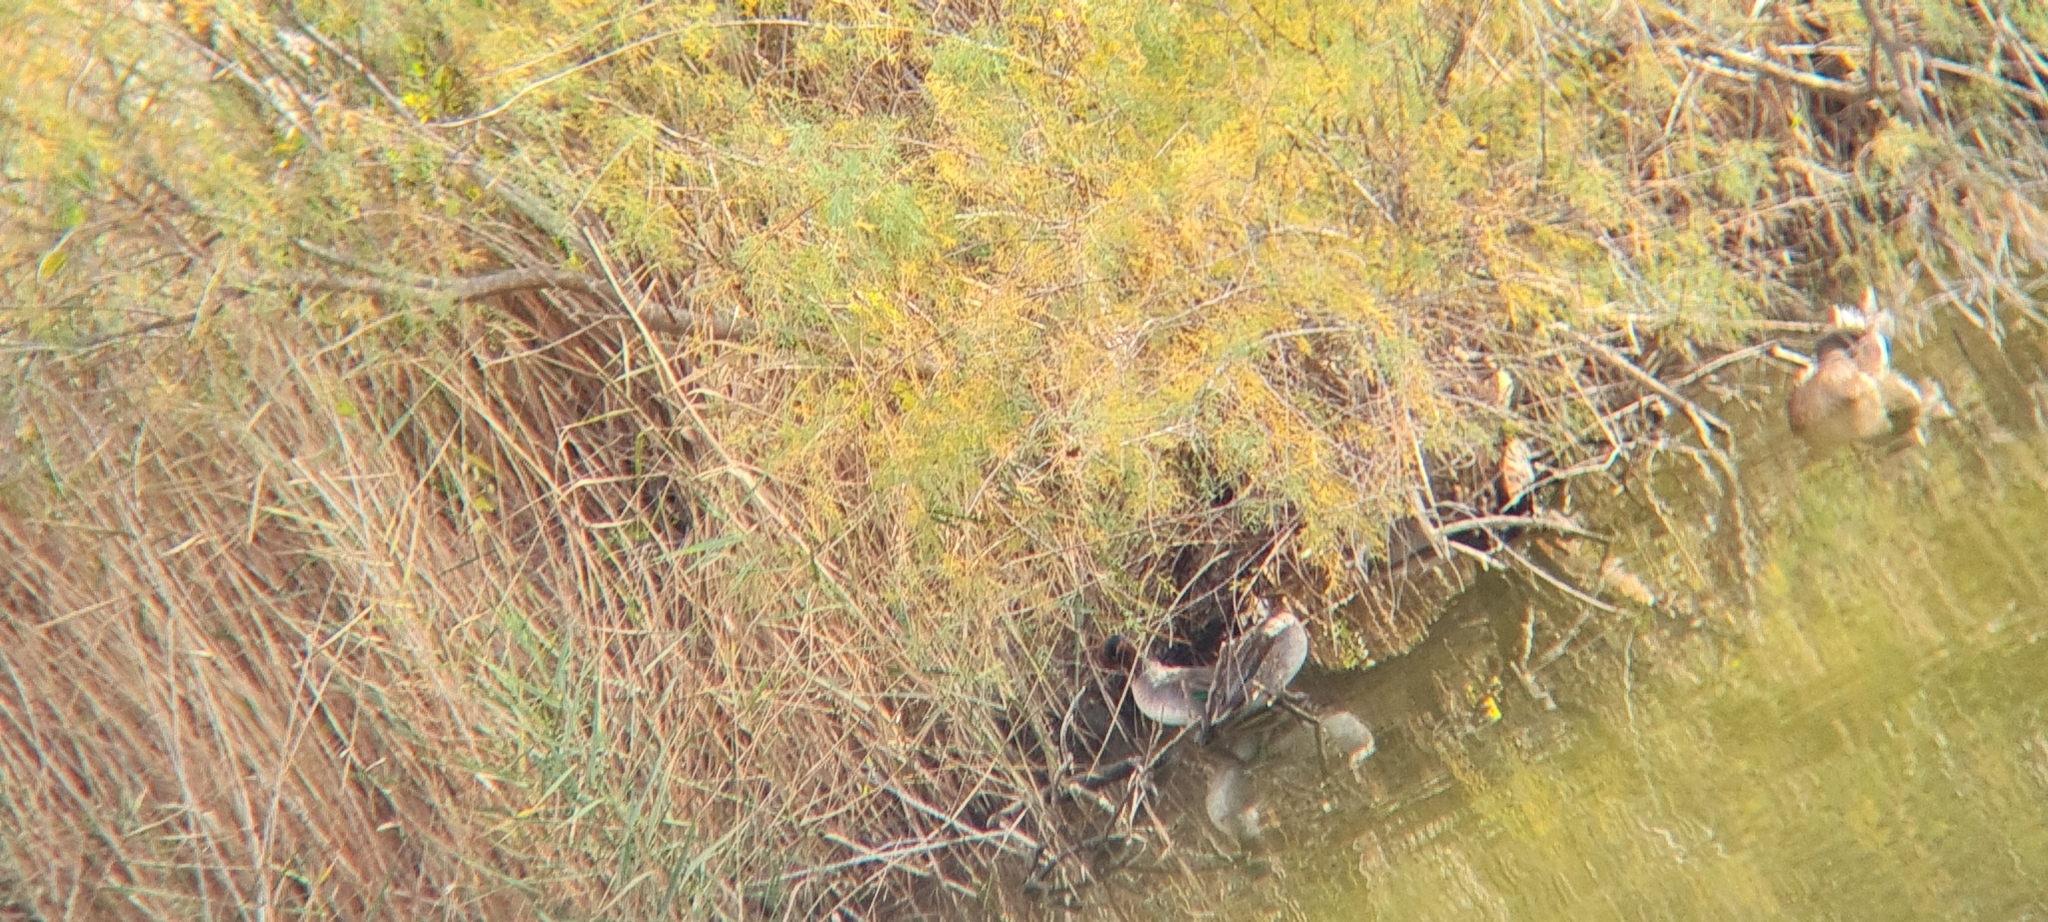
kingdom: Animalia
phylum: Chordata
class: Aves
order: Anseriformes
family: Anatidae
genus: Anas
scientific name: Anas crecca
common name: Eurasian teal
